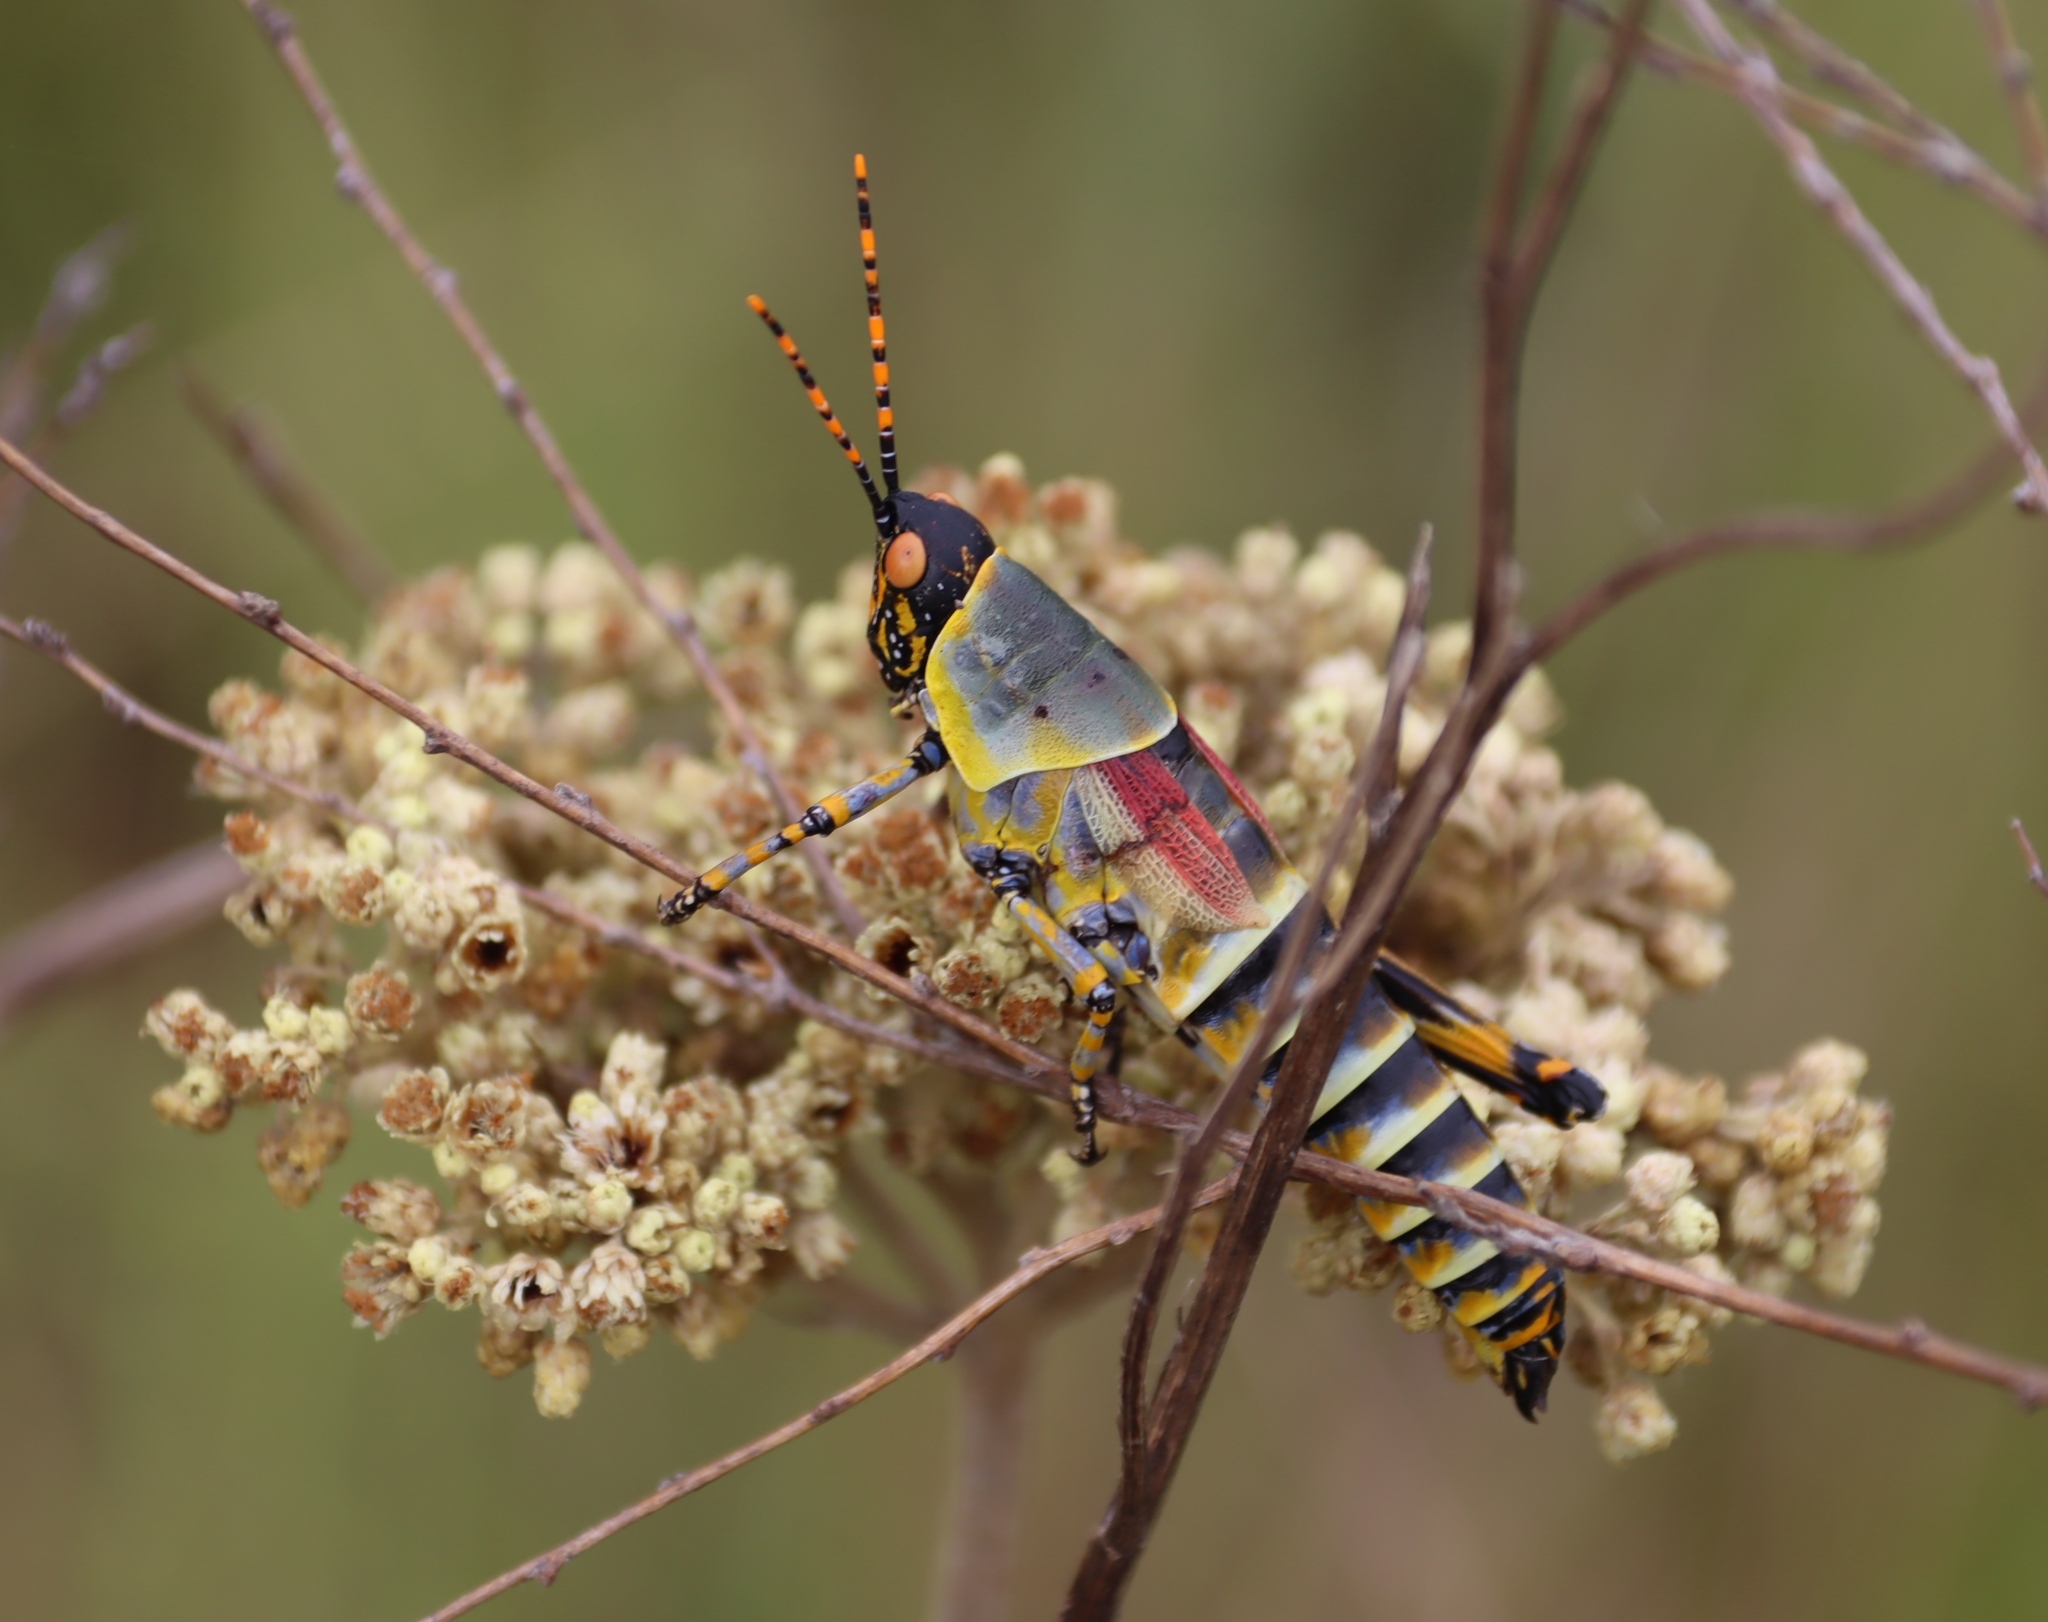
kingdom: Animalia
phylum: Arthropoda
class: Insecta
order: Orthoptera
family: Pyrgomorphidae
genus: Zonocerus
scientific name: Zonocerus elegans
